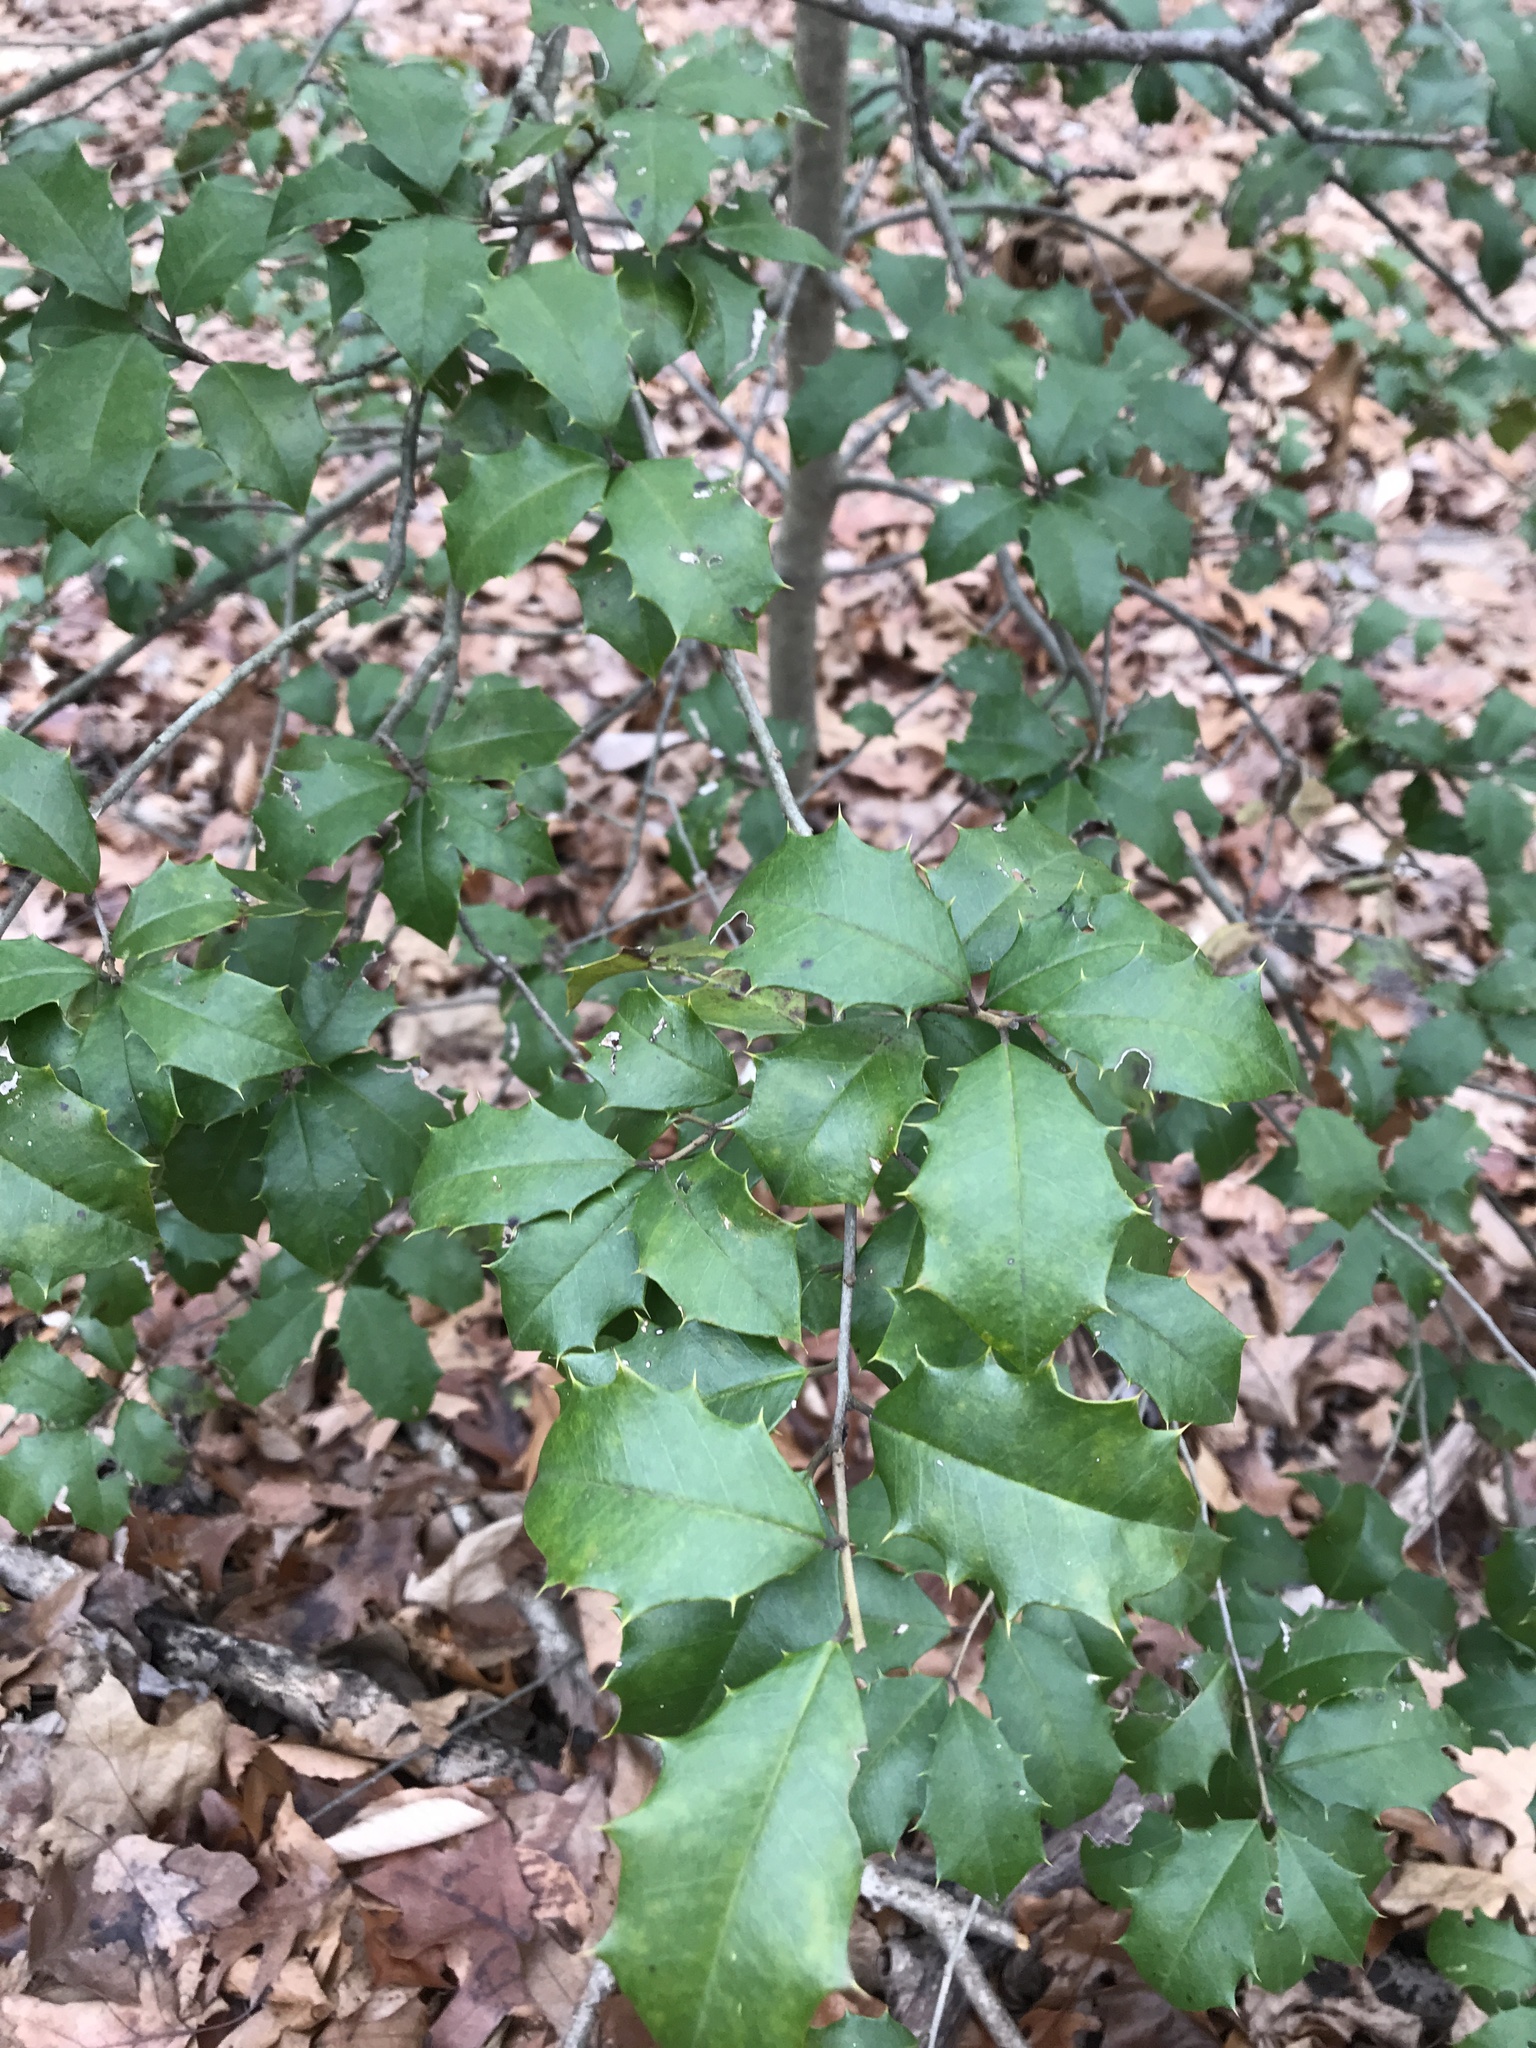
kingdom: Plantae
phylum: Tracheophyta
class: Magnoliopsida
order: Aquifoliales
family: Aquifoliaceae
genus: Ilex
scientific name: Ilex opaca
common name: American holly
